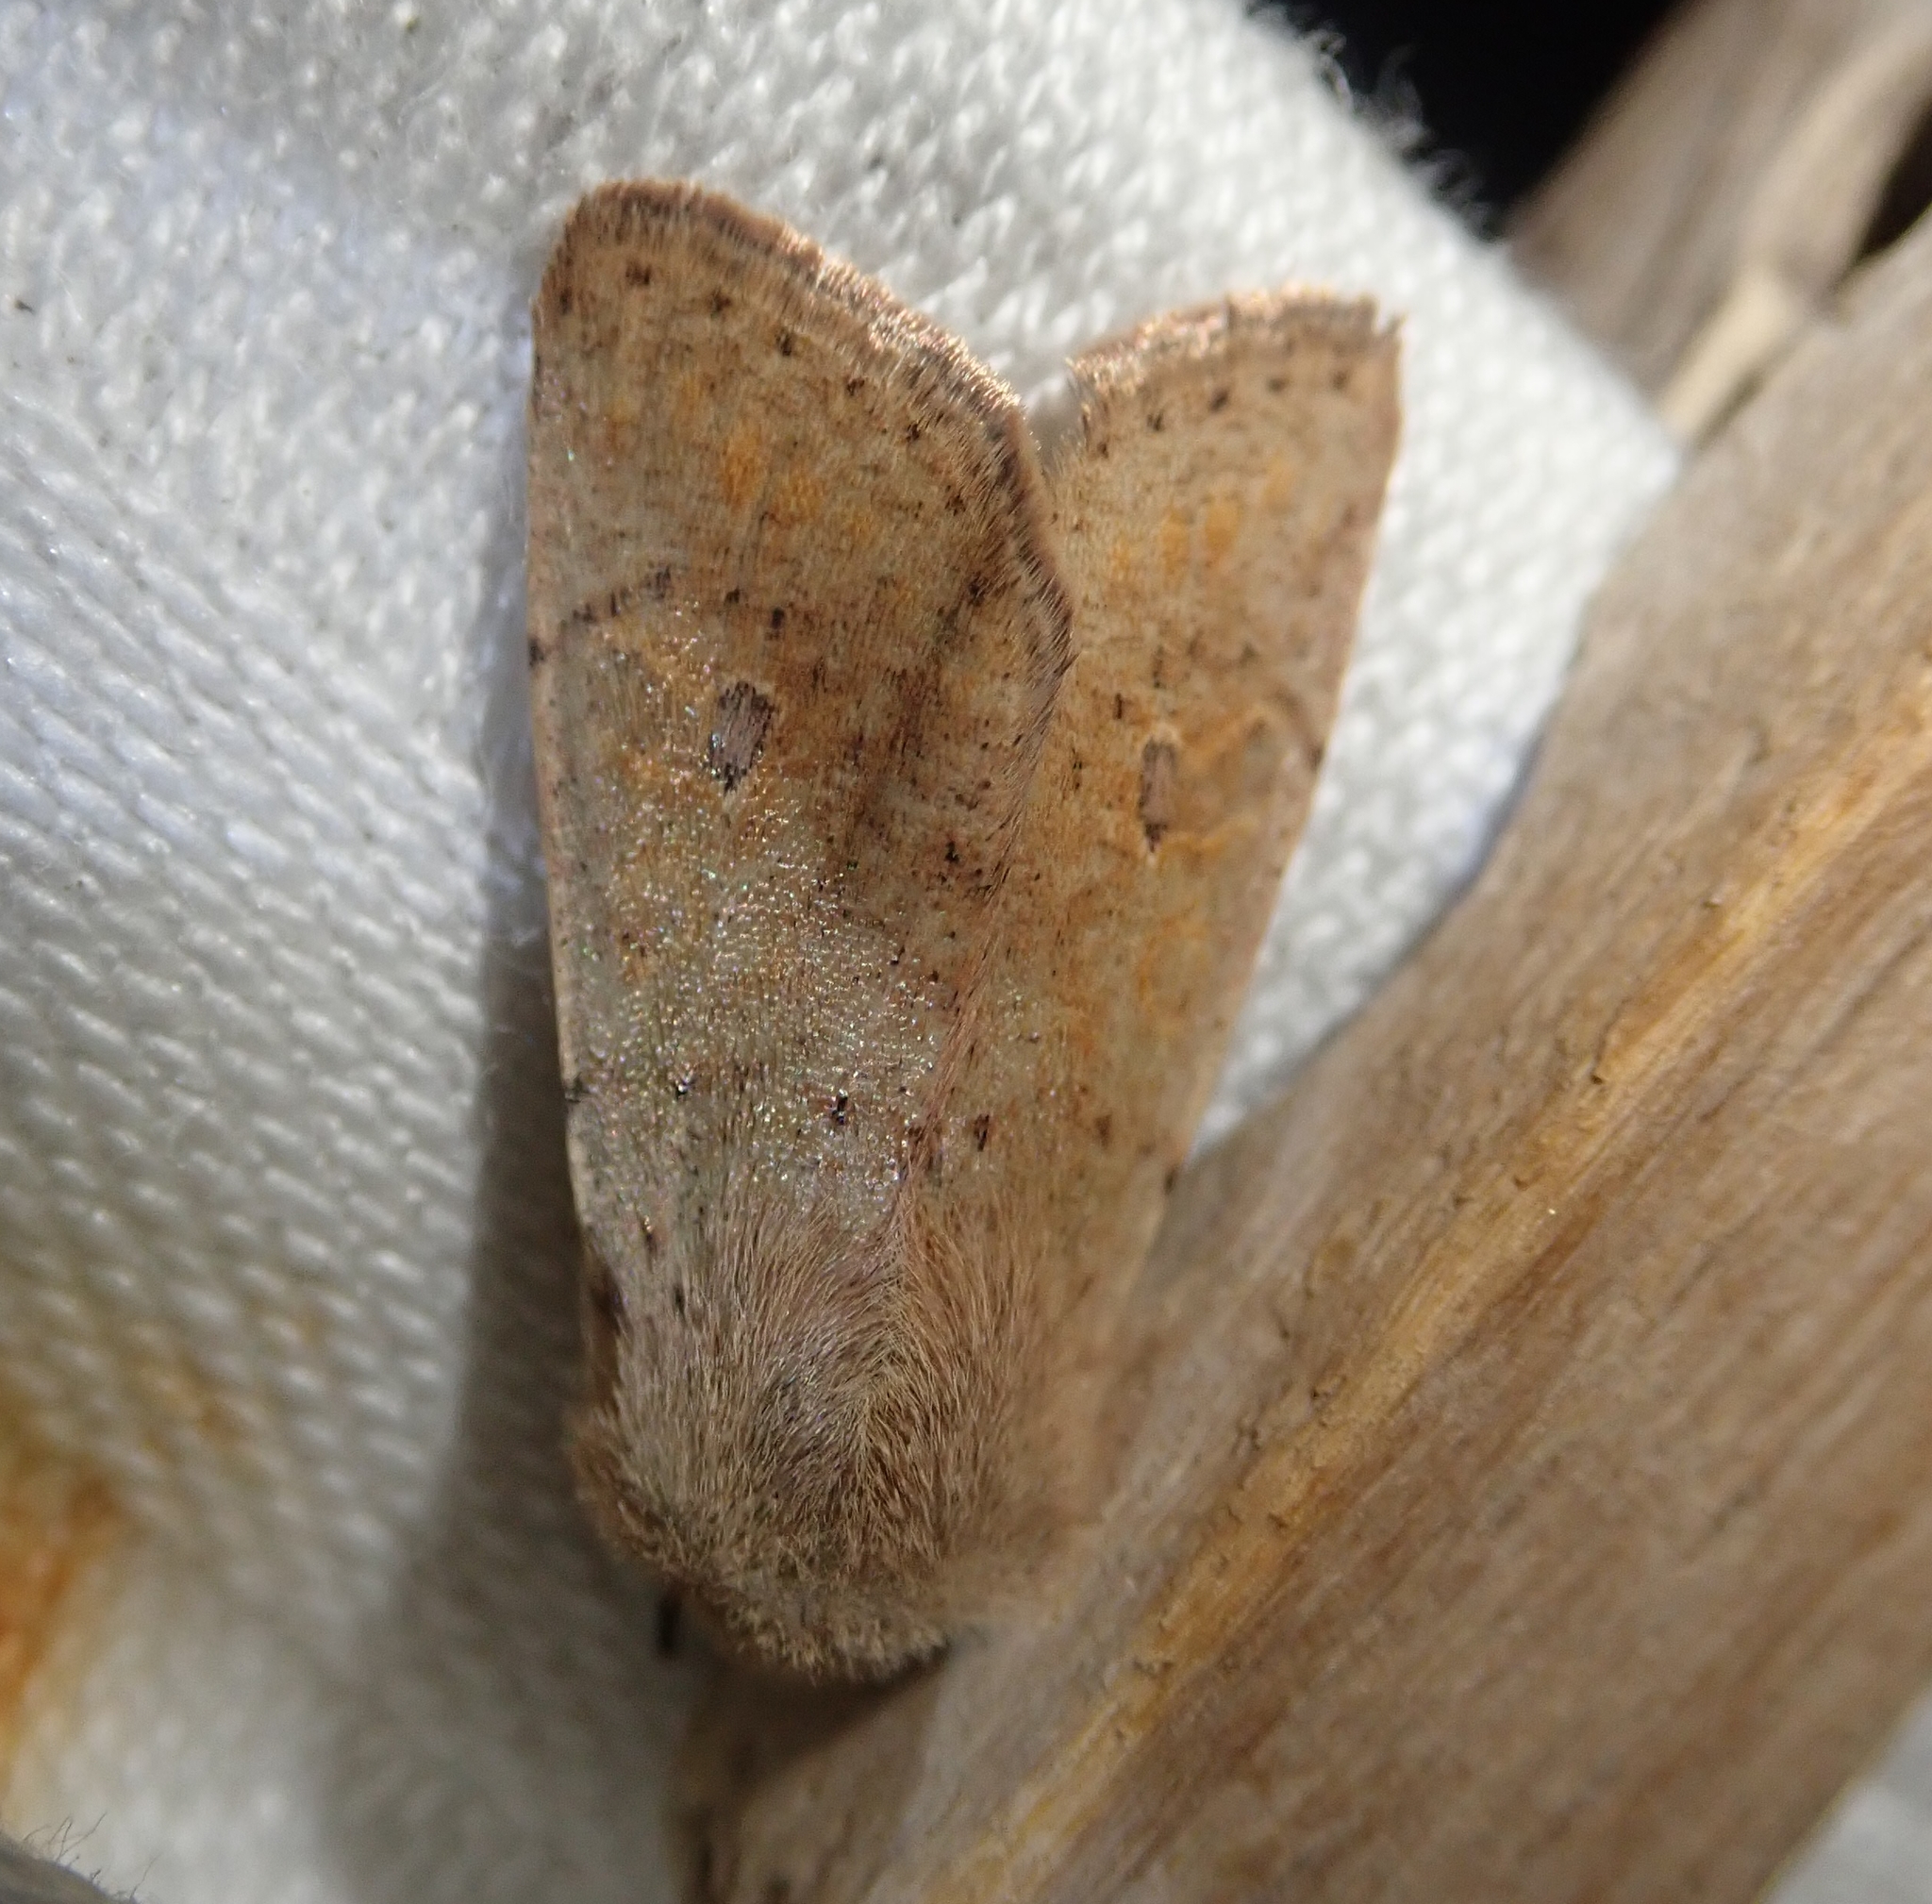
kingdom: Animalia
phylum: Arthropoda
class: Insecta
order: Lepidoptera
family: Noctuidae
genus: Orthosia
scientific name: Orthosia cruda
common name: Small quaker
